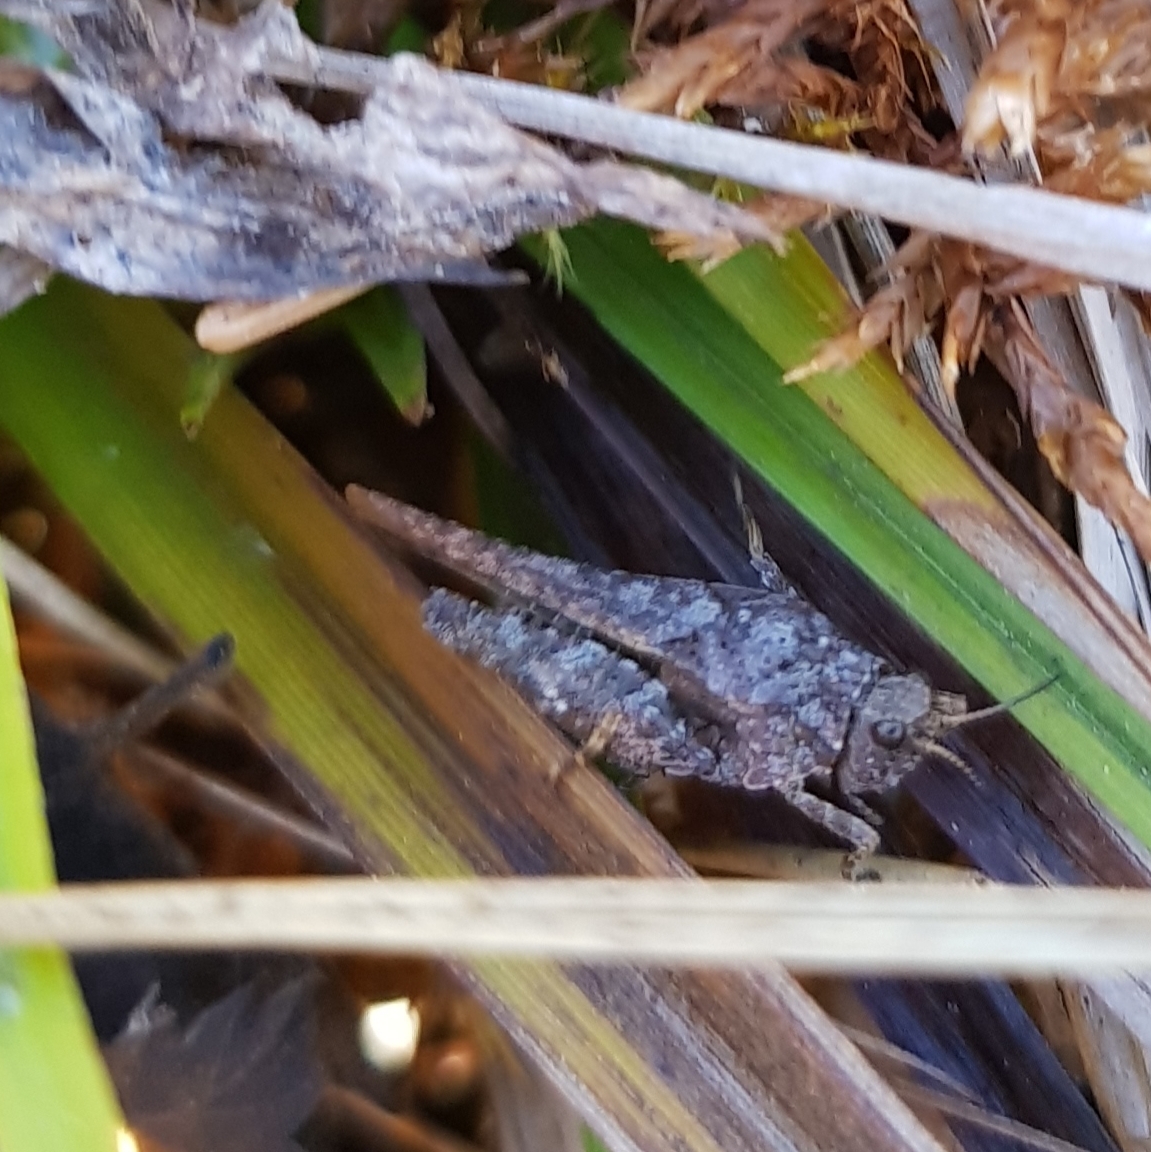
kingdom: Animalia
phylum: Arthropoda
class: Insecta
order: Orthoptera
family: Tetrigidae
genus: Tetrix
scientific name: Tetrix subulata
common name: Slender ground-hopper
